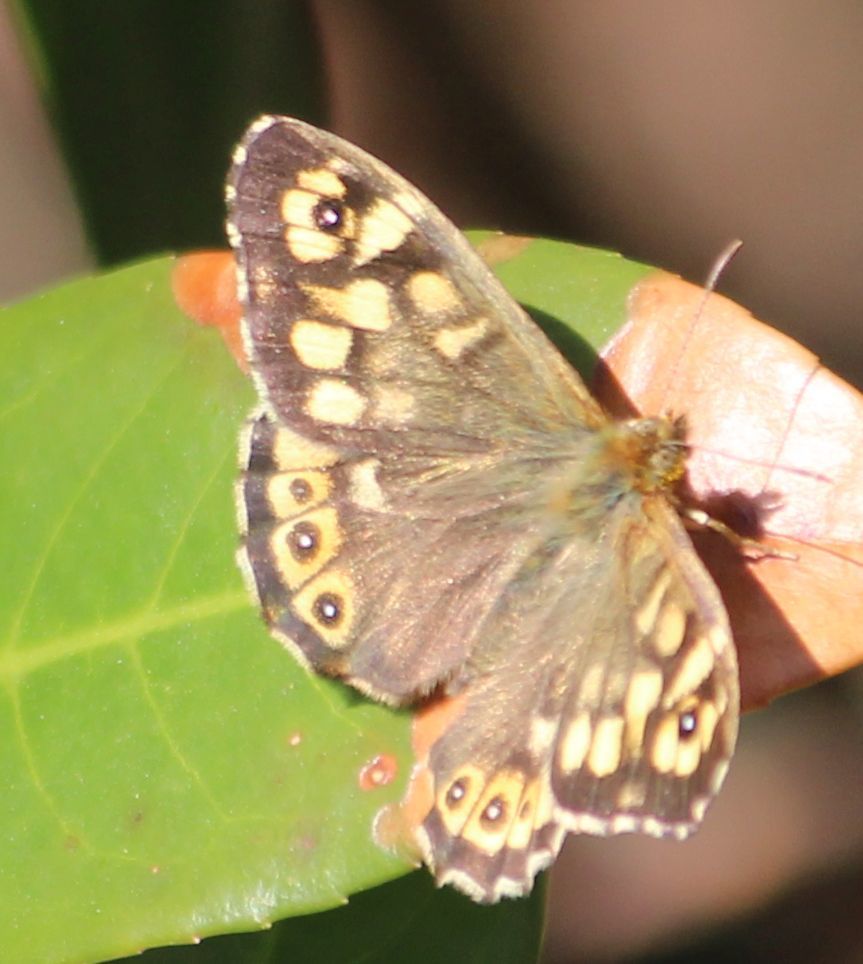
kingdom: Animalia
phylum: Arthropoda
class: Insecta
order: Lepidoptera
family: Nymphalidae
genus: Pararge
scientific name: Pararge aegeria
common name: Speckled wood
